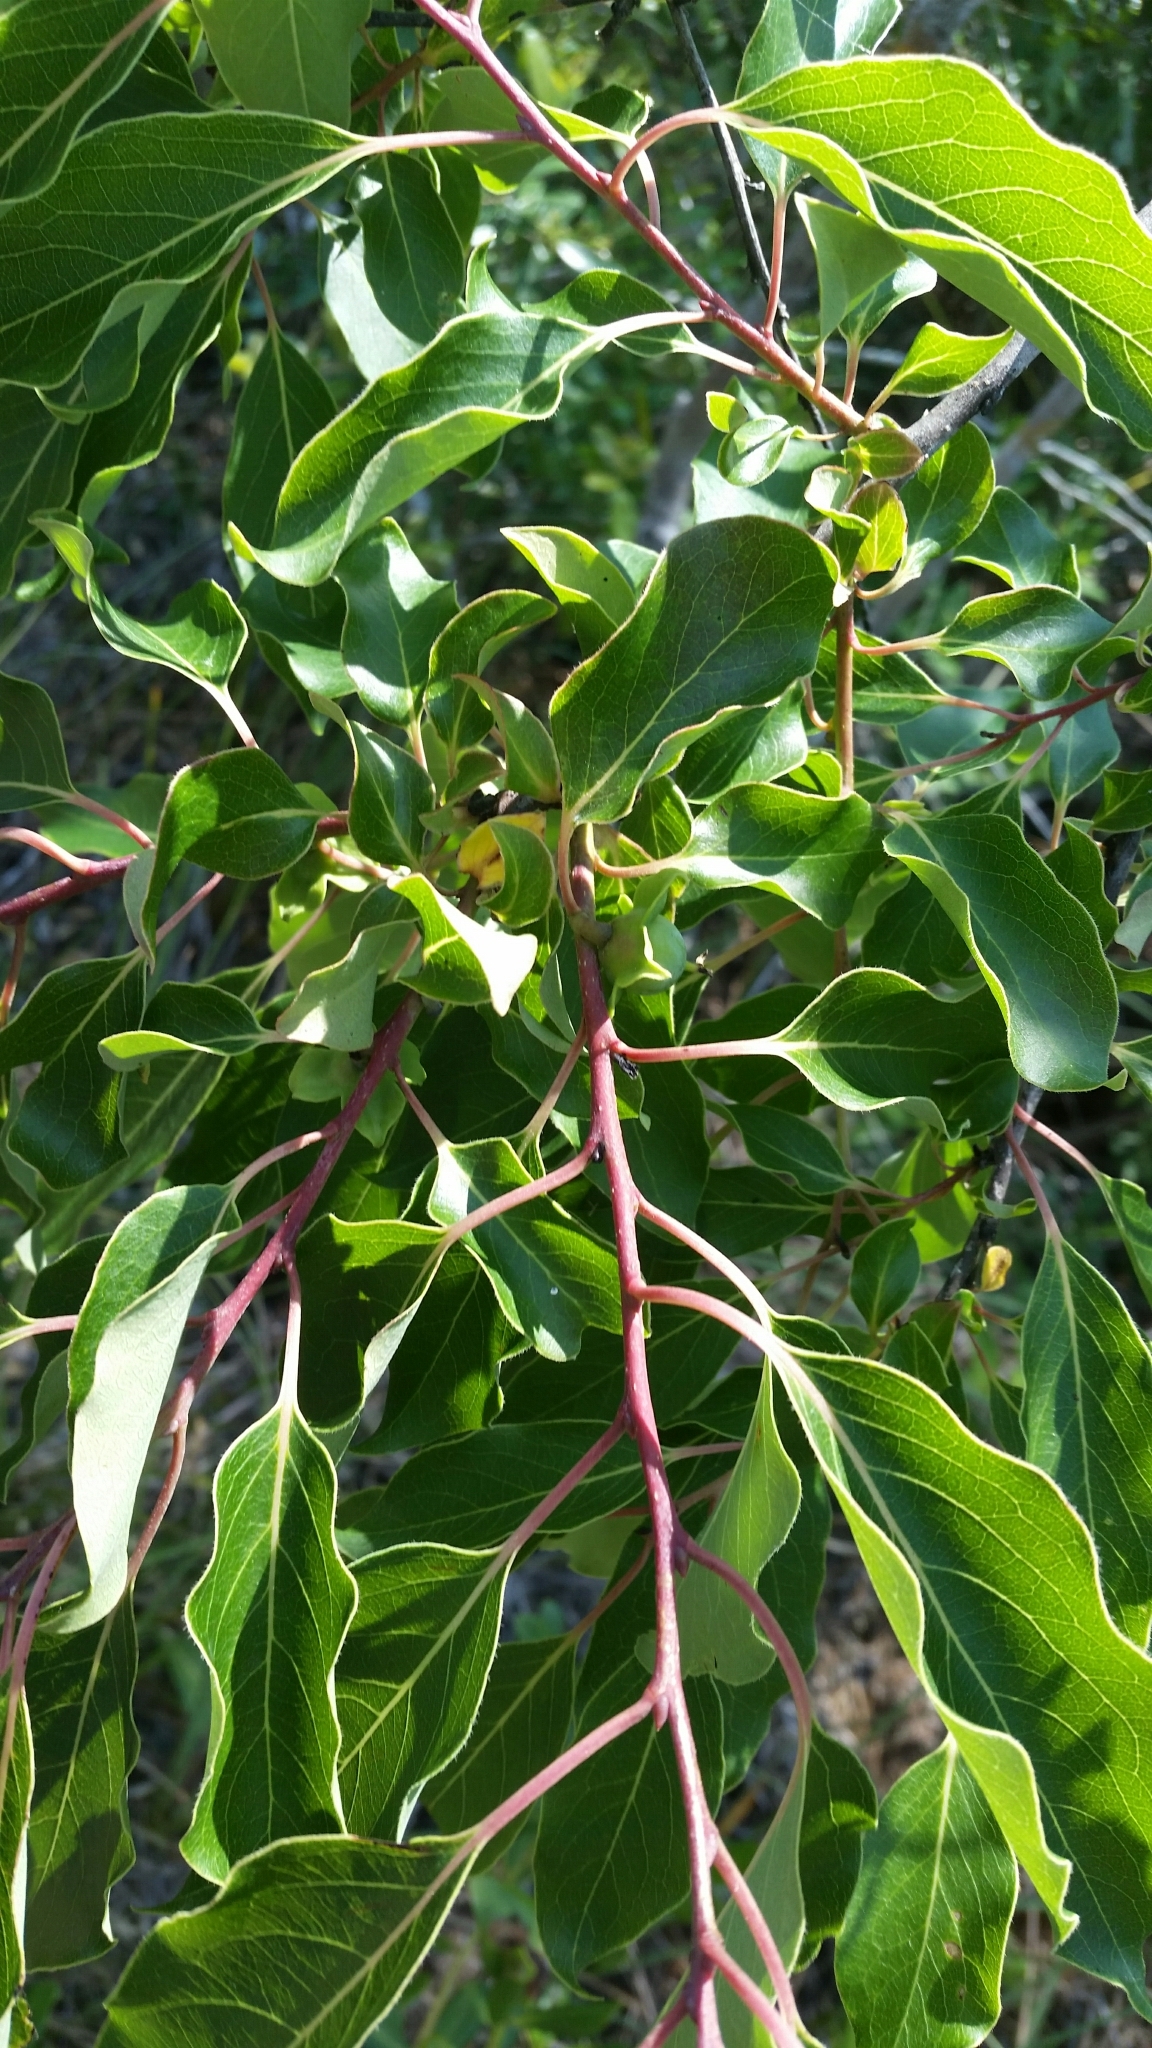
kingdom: Plantae
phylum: Tracheophyta
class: Magnoliopsida
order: Ericales
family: Ebenaceae
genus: Diospyros
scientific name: Diospyros virginiana
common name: Persimmon
